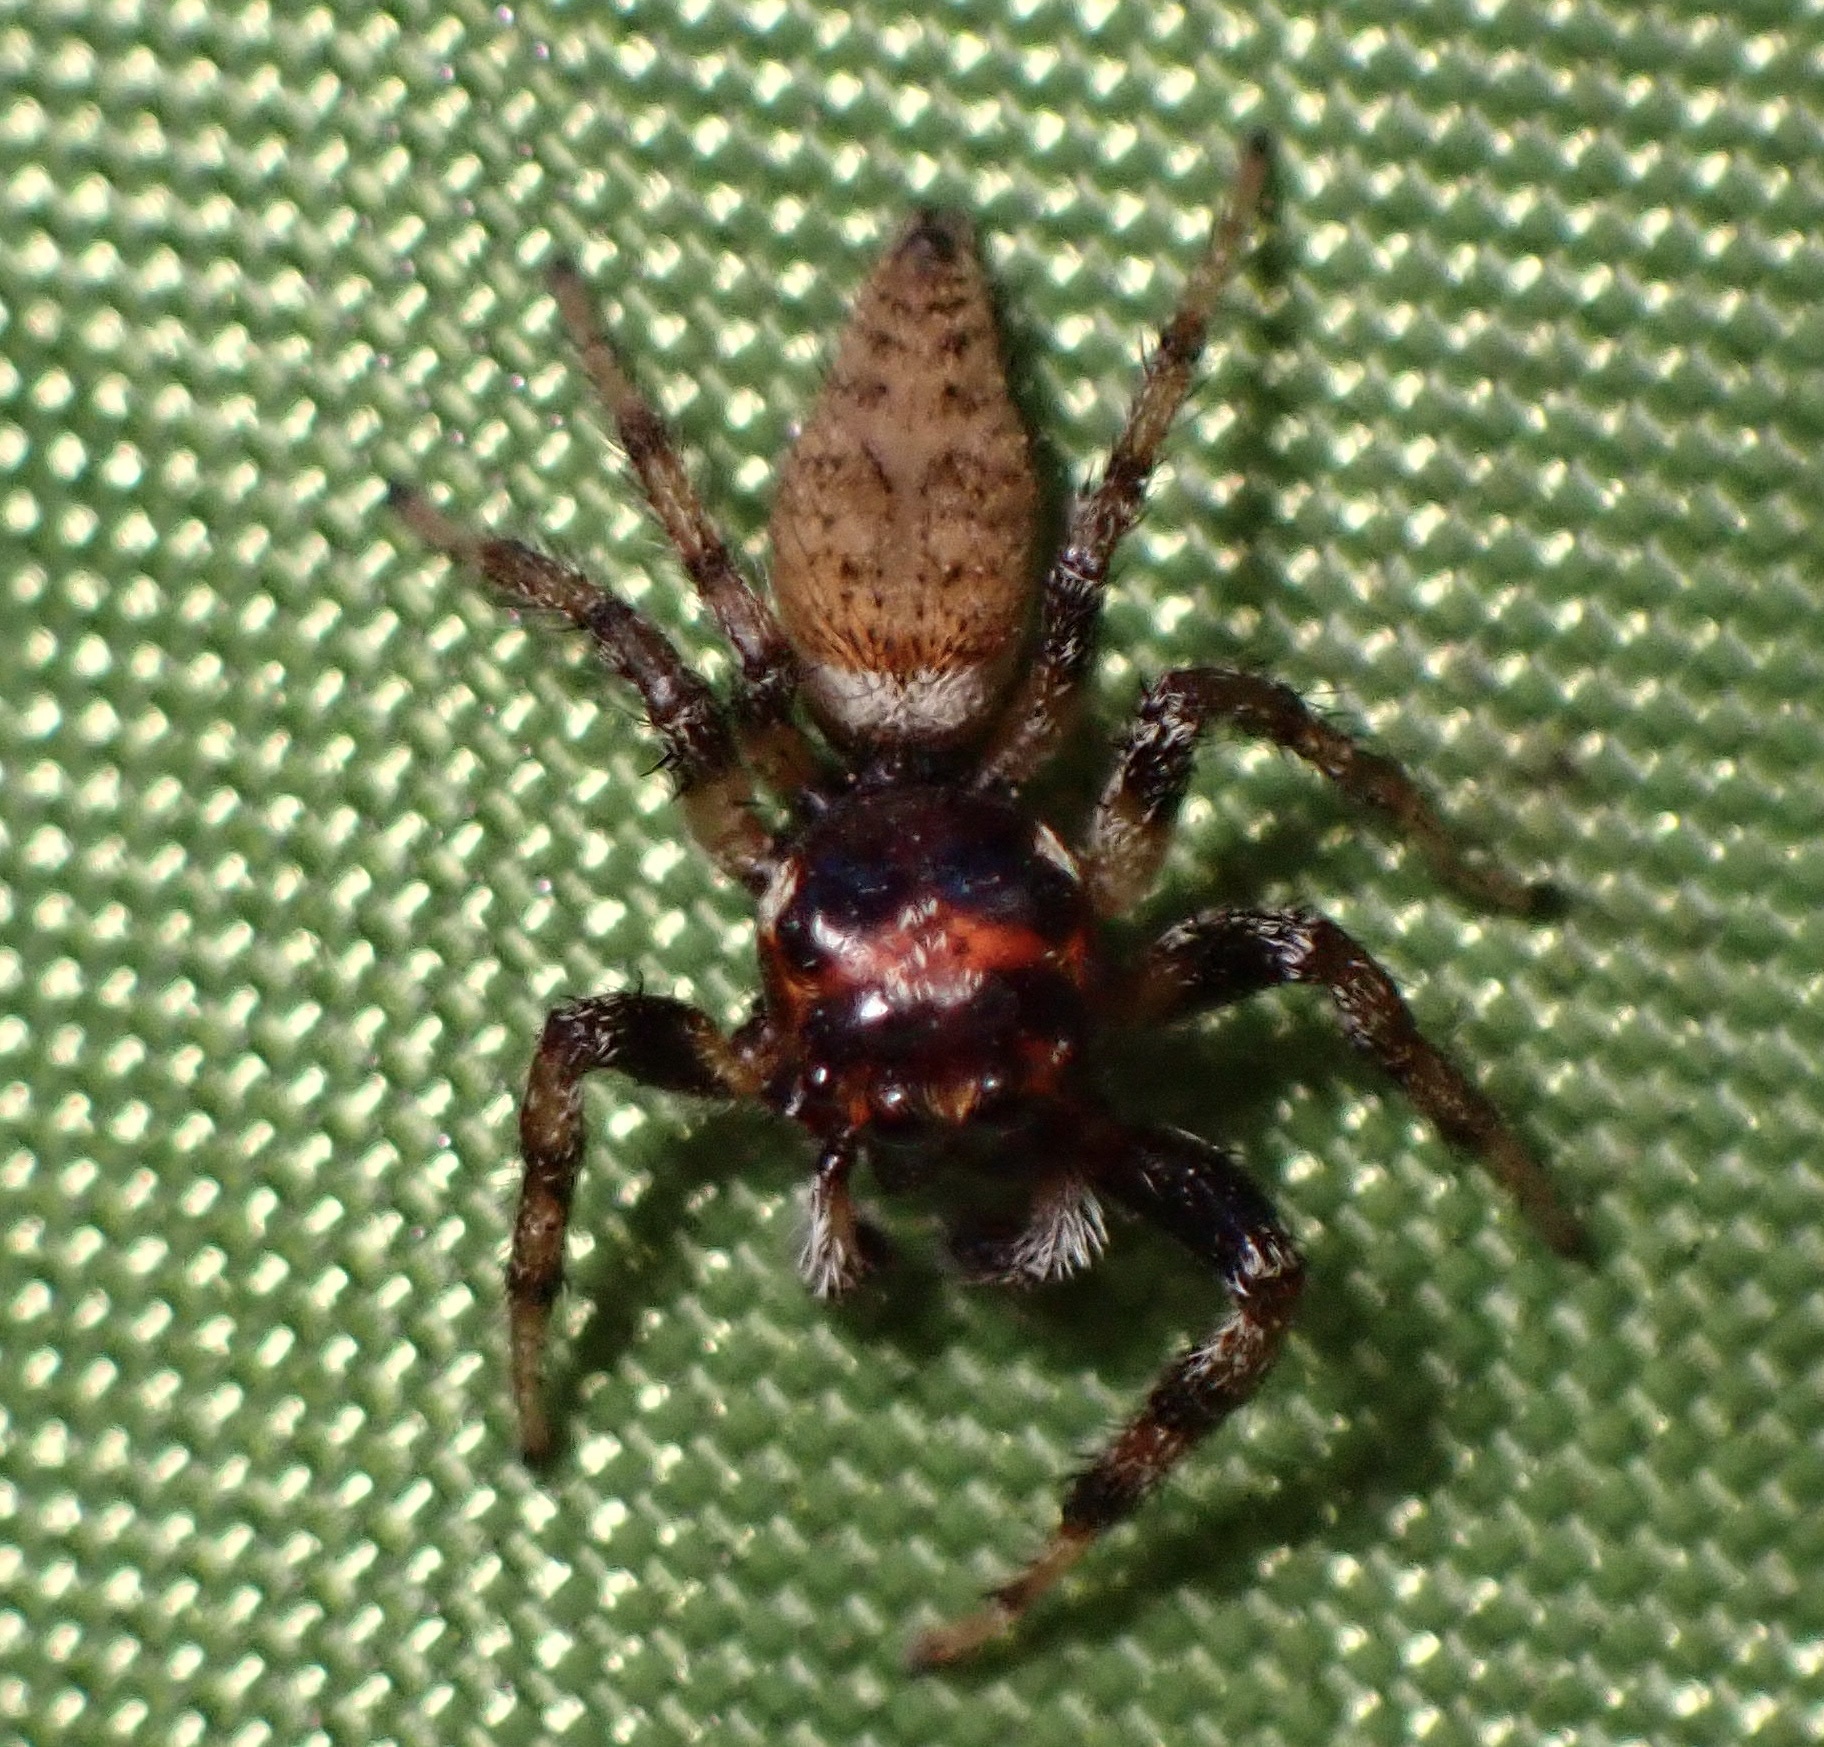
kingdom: Animalia
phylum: Arthropoda
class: Arachnida
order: Araneae
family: Salticidae
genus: Colonus
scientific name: Colonus hesperus
